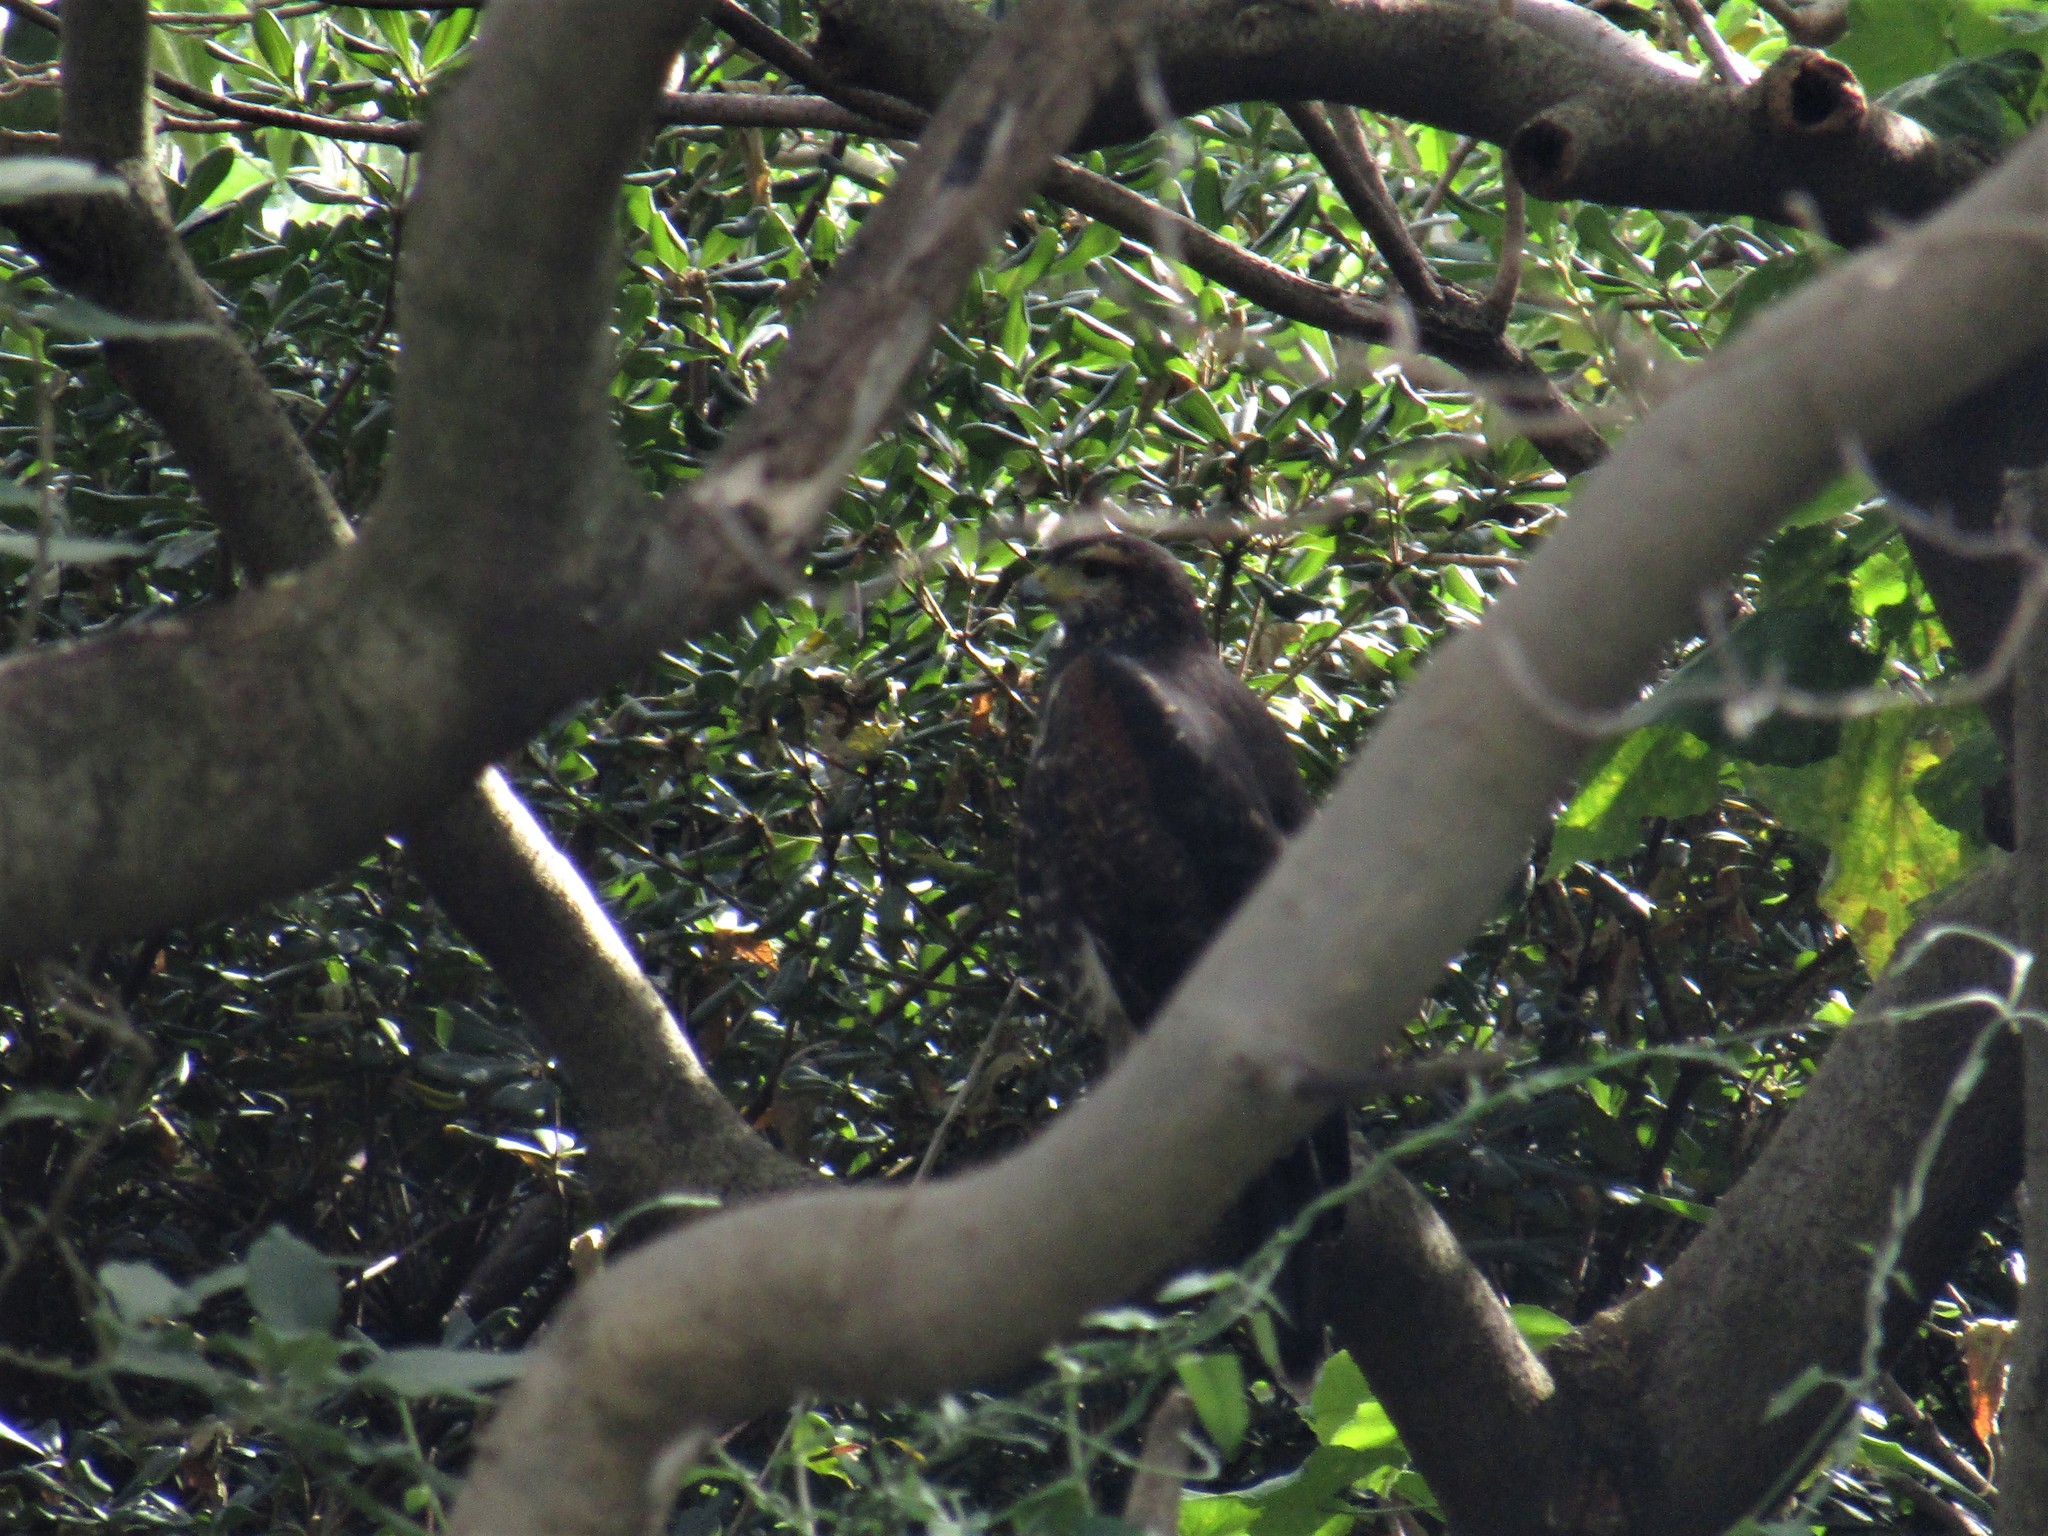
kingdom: Animalia
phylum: Chordata
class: Aves
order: Accipitriformes
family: Accipitridae
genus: Parabuteo
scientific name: Parabuteo unicinctus
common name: Harris's hawk
